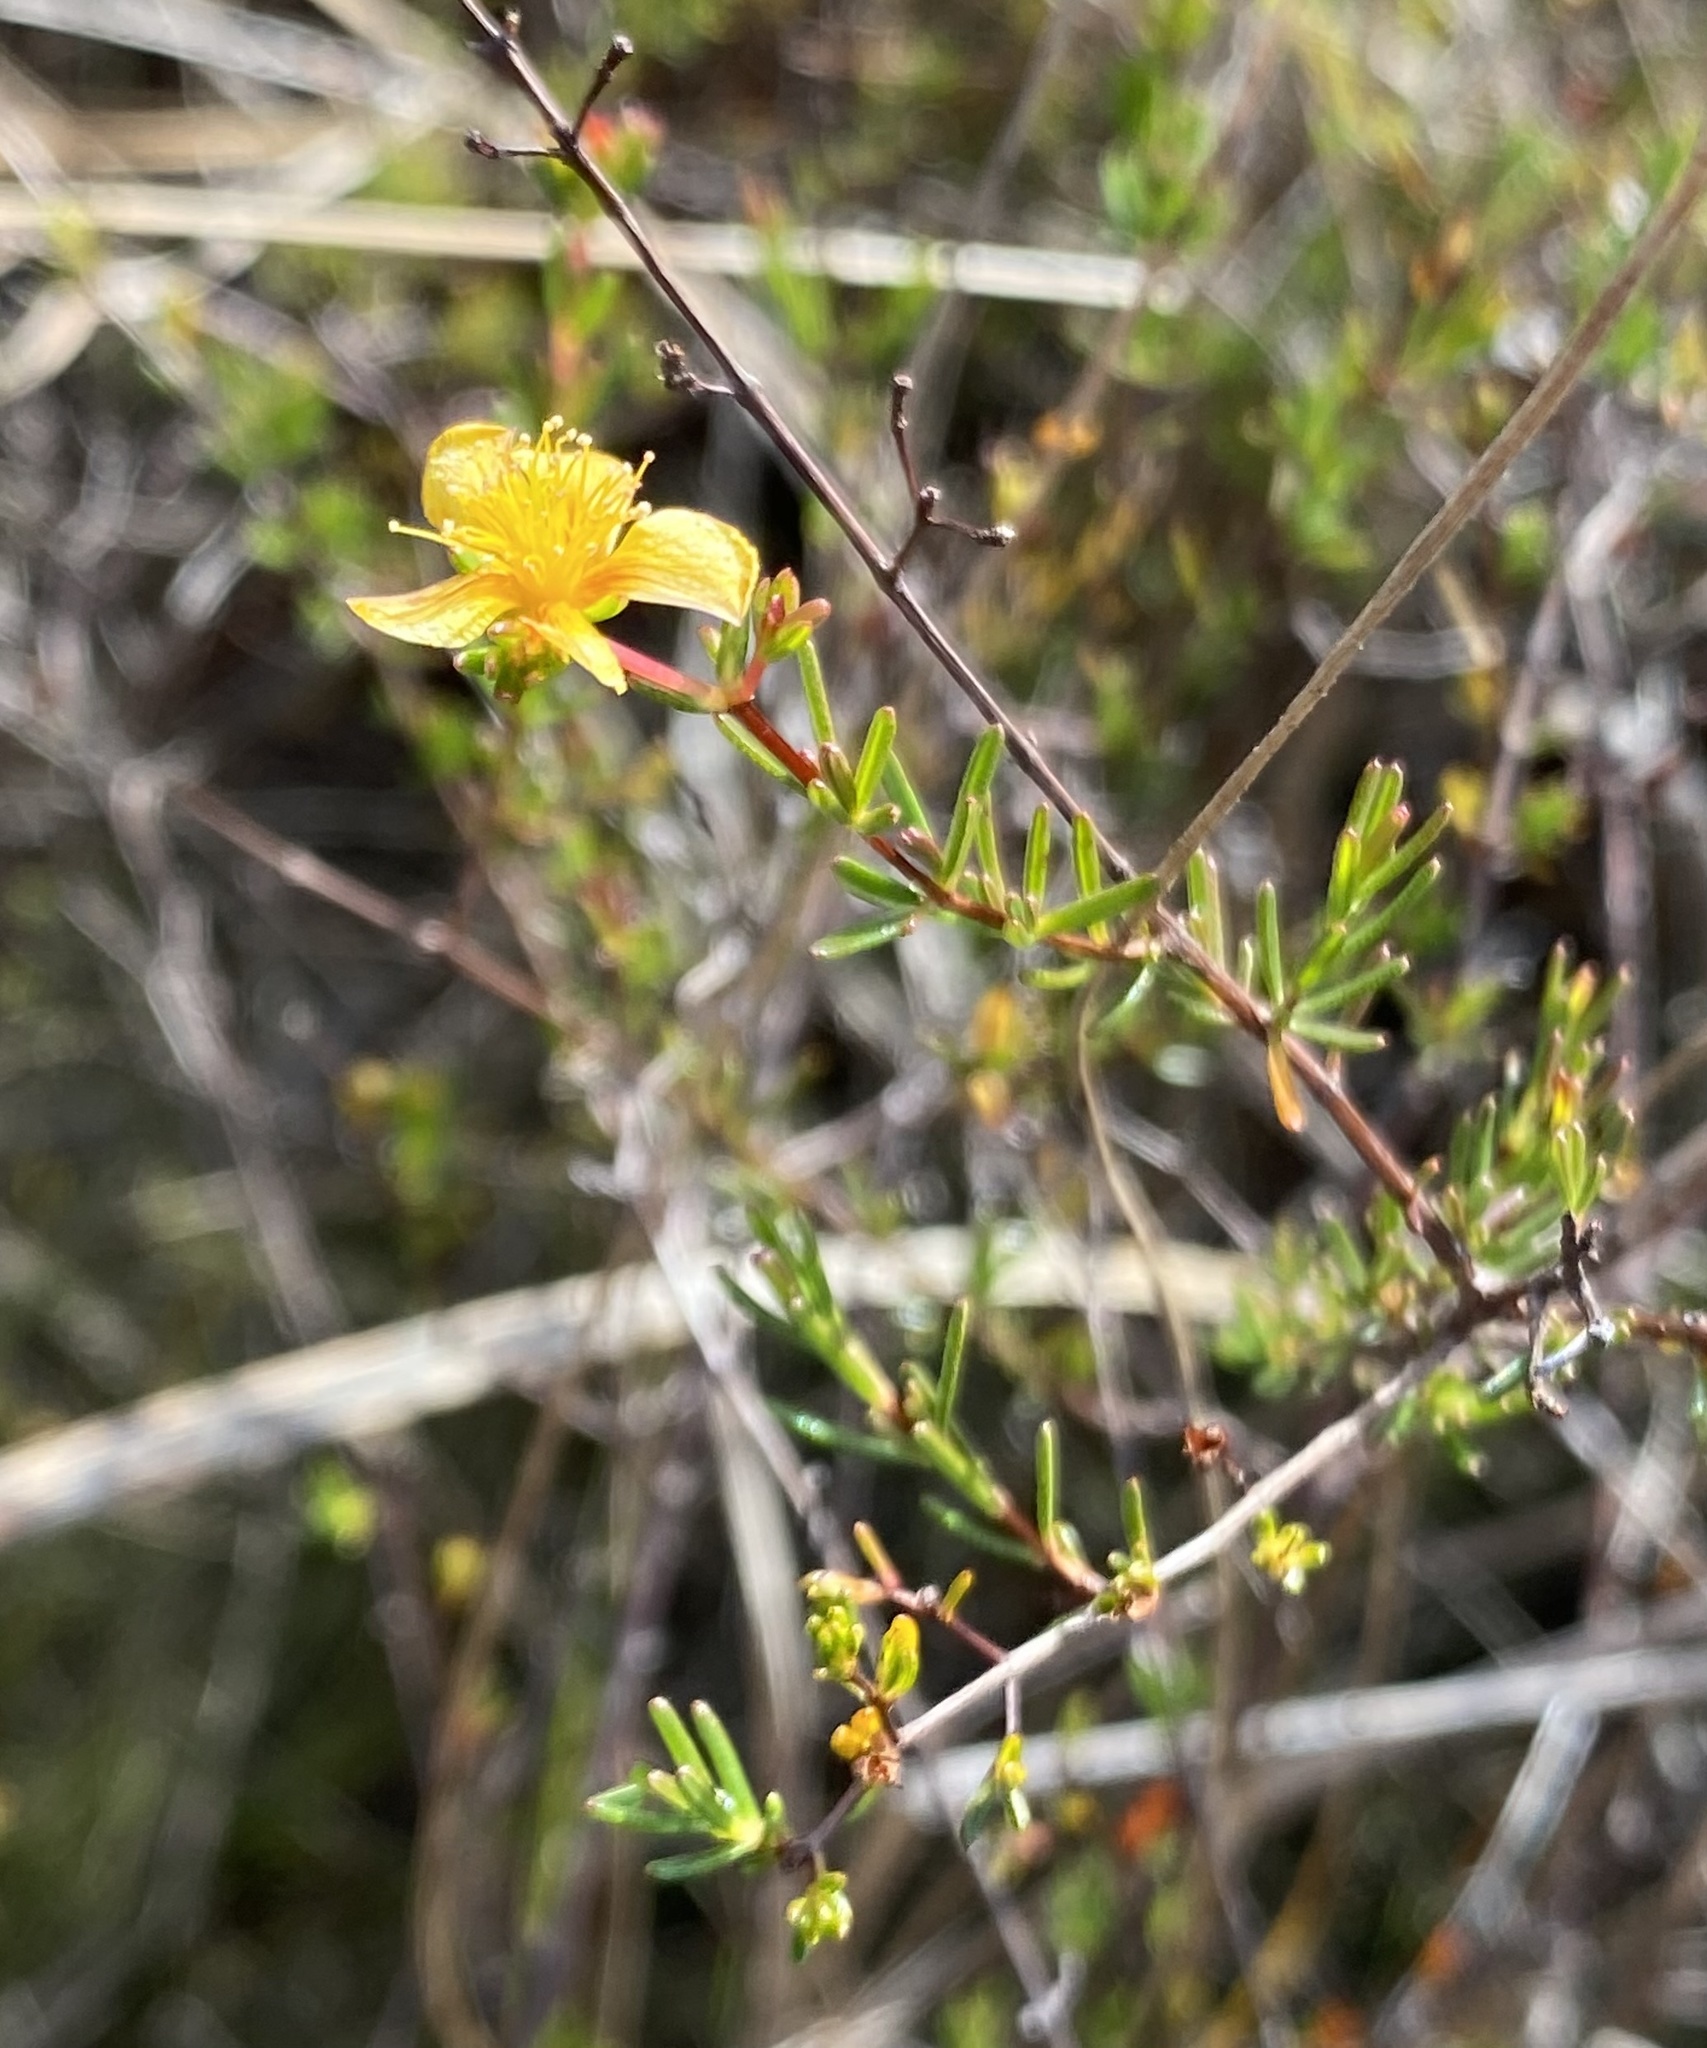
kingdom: Plantae
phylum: Tracheophyta
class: Magnoliopsida
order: Malpighiales
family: Hypericaceae
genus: Hypericum
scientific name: Hypericum brachyphyllum
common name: Coastal plain st. john's-wort
